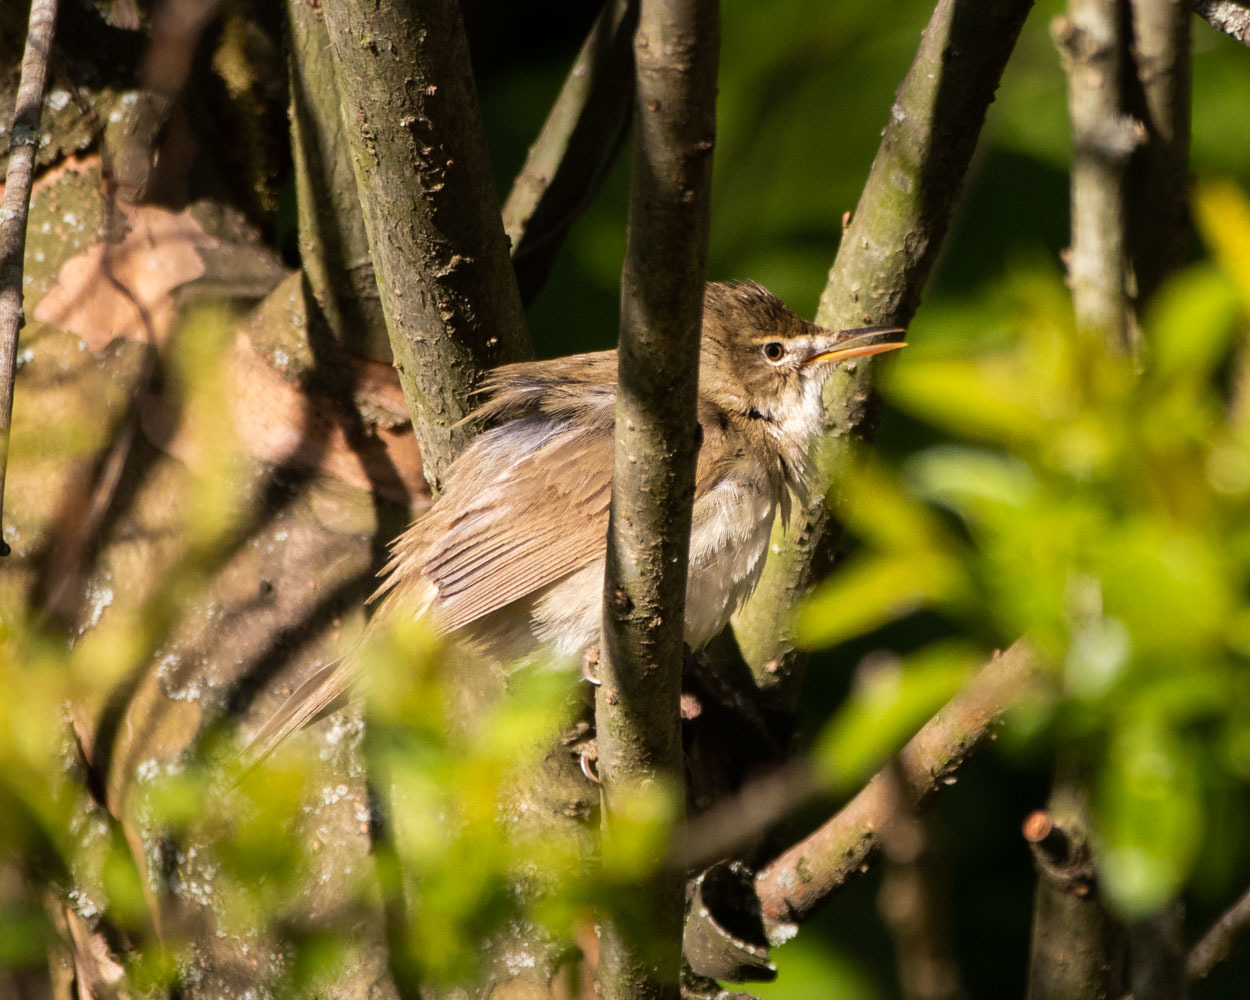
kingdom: Animalia
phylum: Chordata
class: Aves
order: Passeriformes
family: Acrocephalidae
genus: Acrocephalus
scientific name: Acrocephalus dumetorum
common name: Blyth's reed warbler
